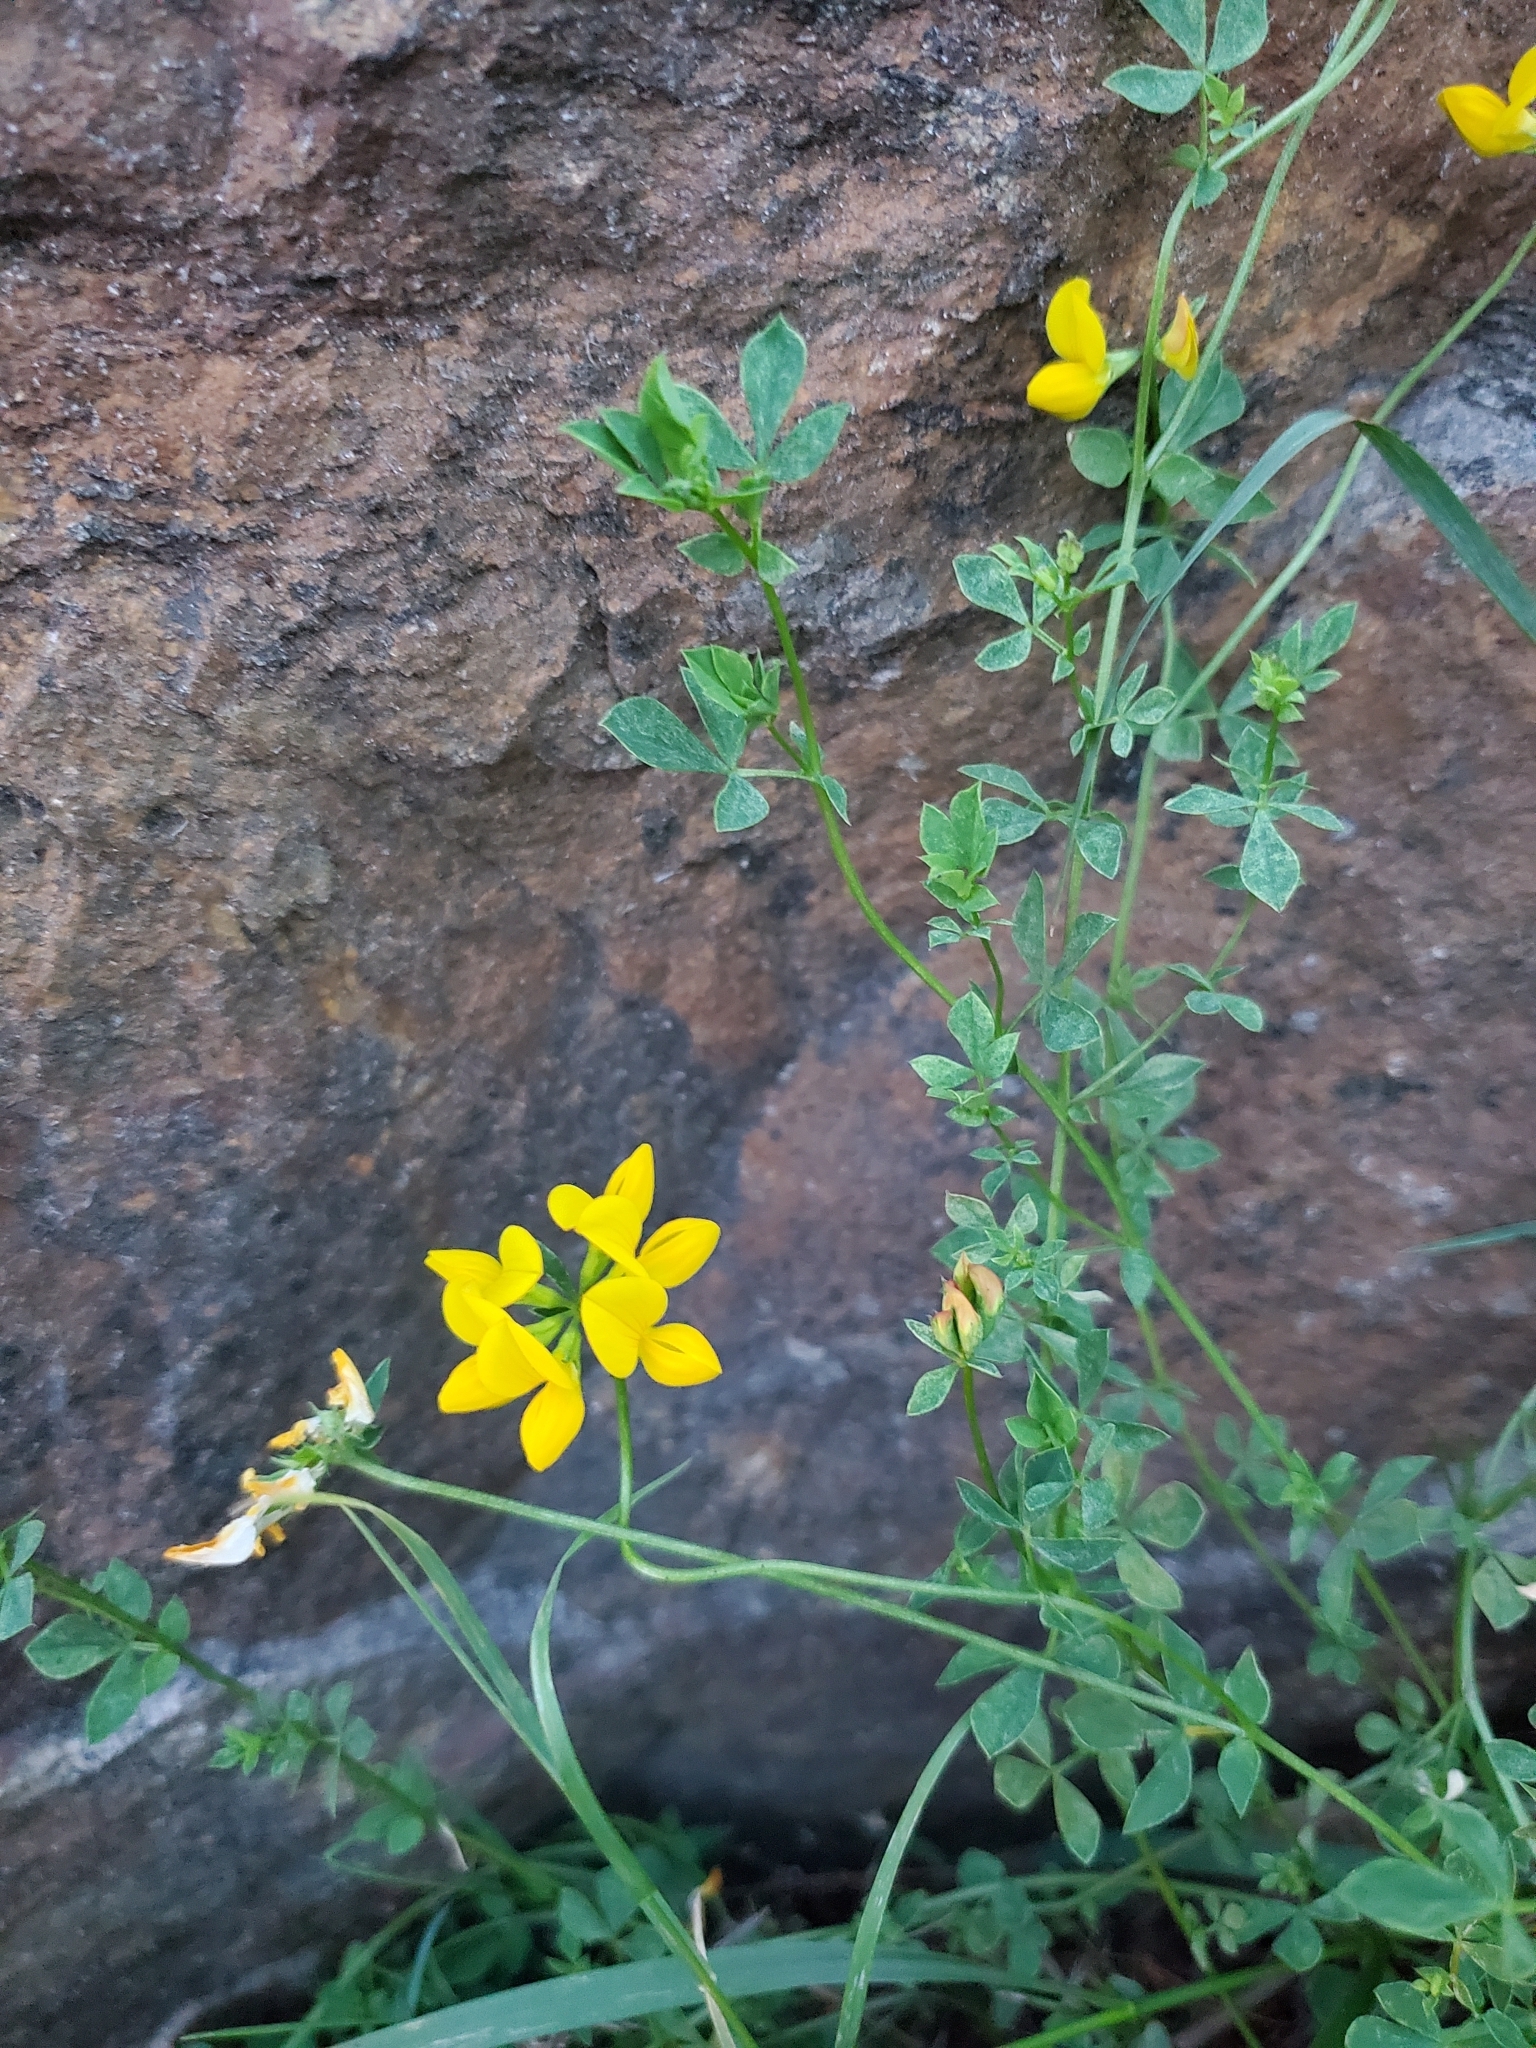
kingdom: Plantae
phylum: Tracheophyta
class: Magnoliopsida
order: Fabales
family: Fabaceae
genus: Lotus
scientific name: Lotus corniculatus
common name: Common bird's-foot-trefoil
